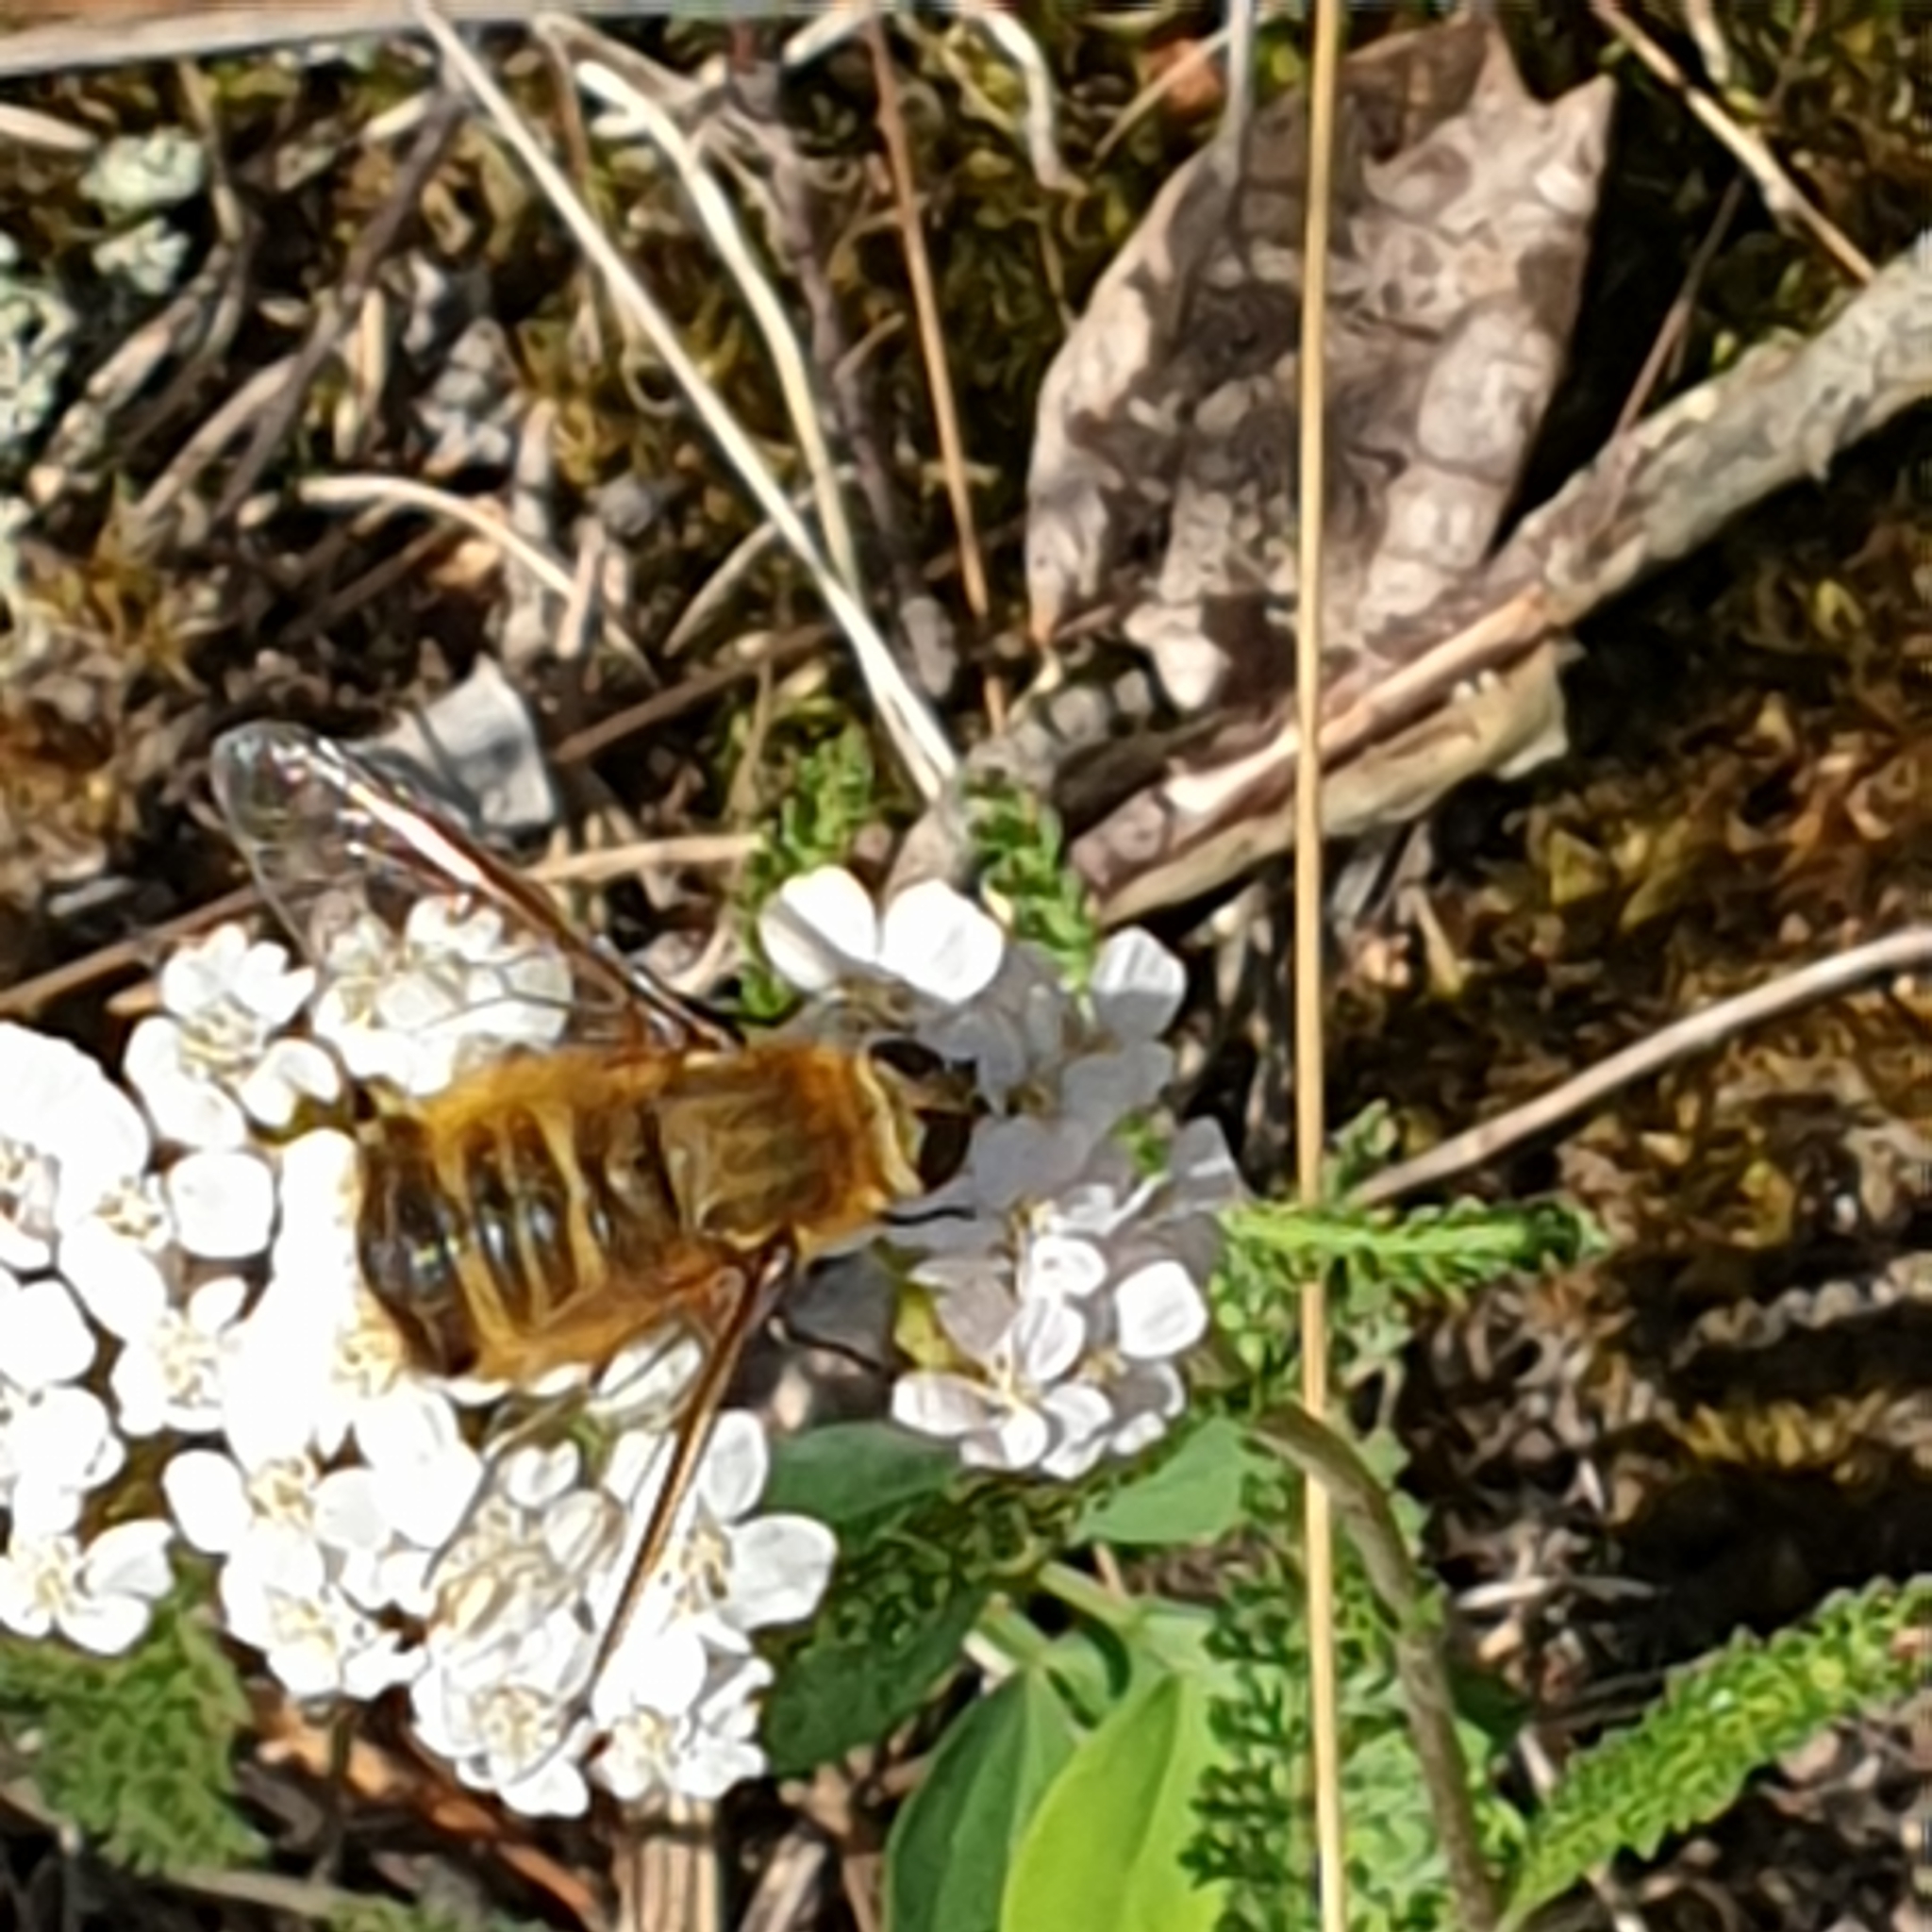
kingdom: Animalia
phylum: Arthropoda
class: Insecta
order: Diptera
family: Bombyliidae
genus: Villa
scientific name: Villa hottentotta
